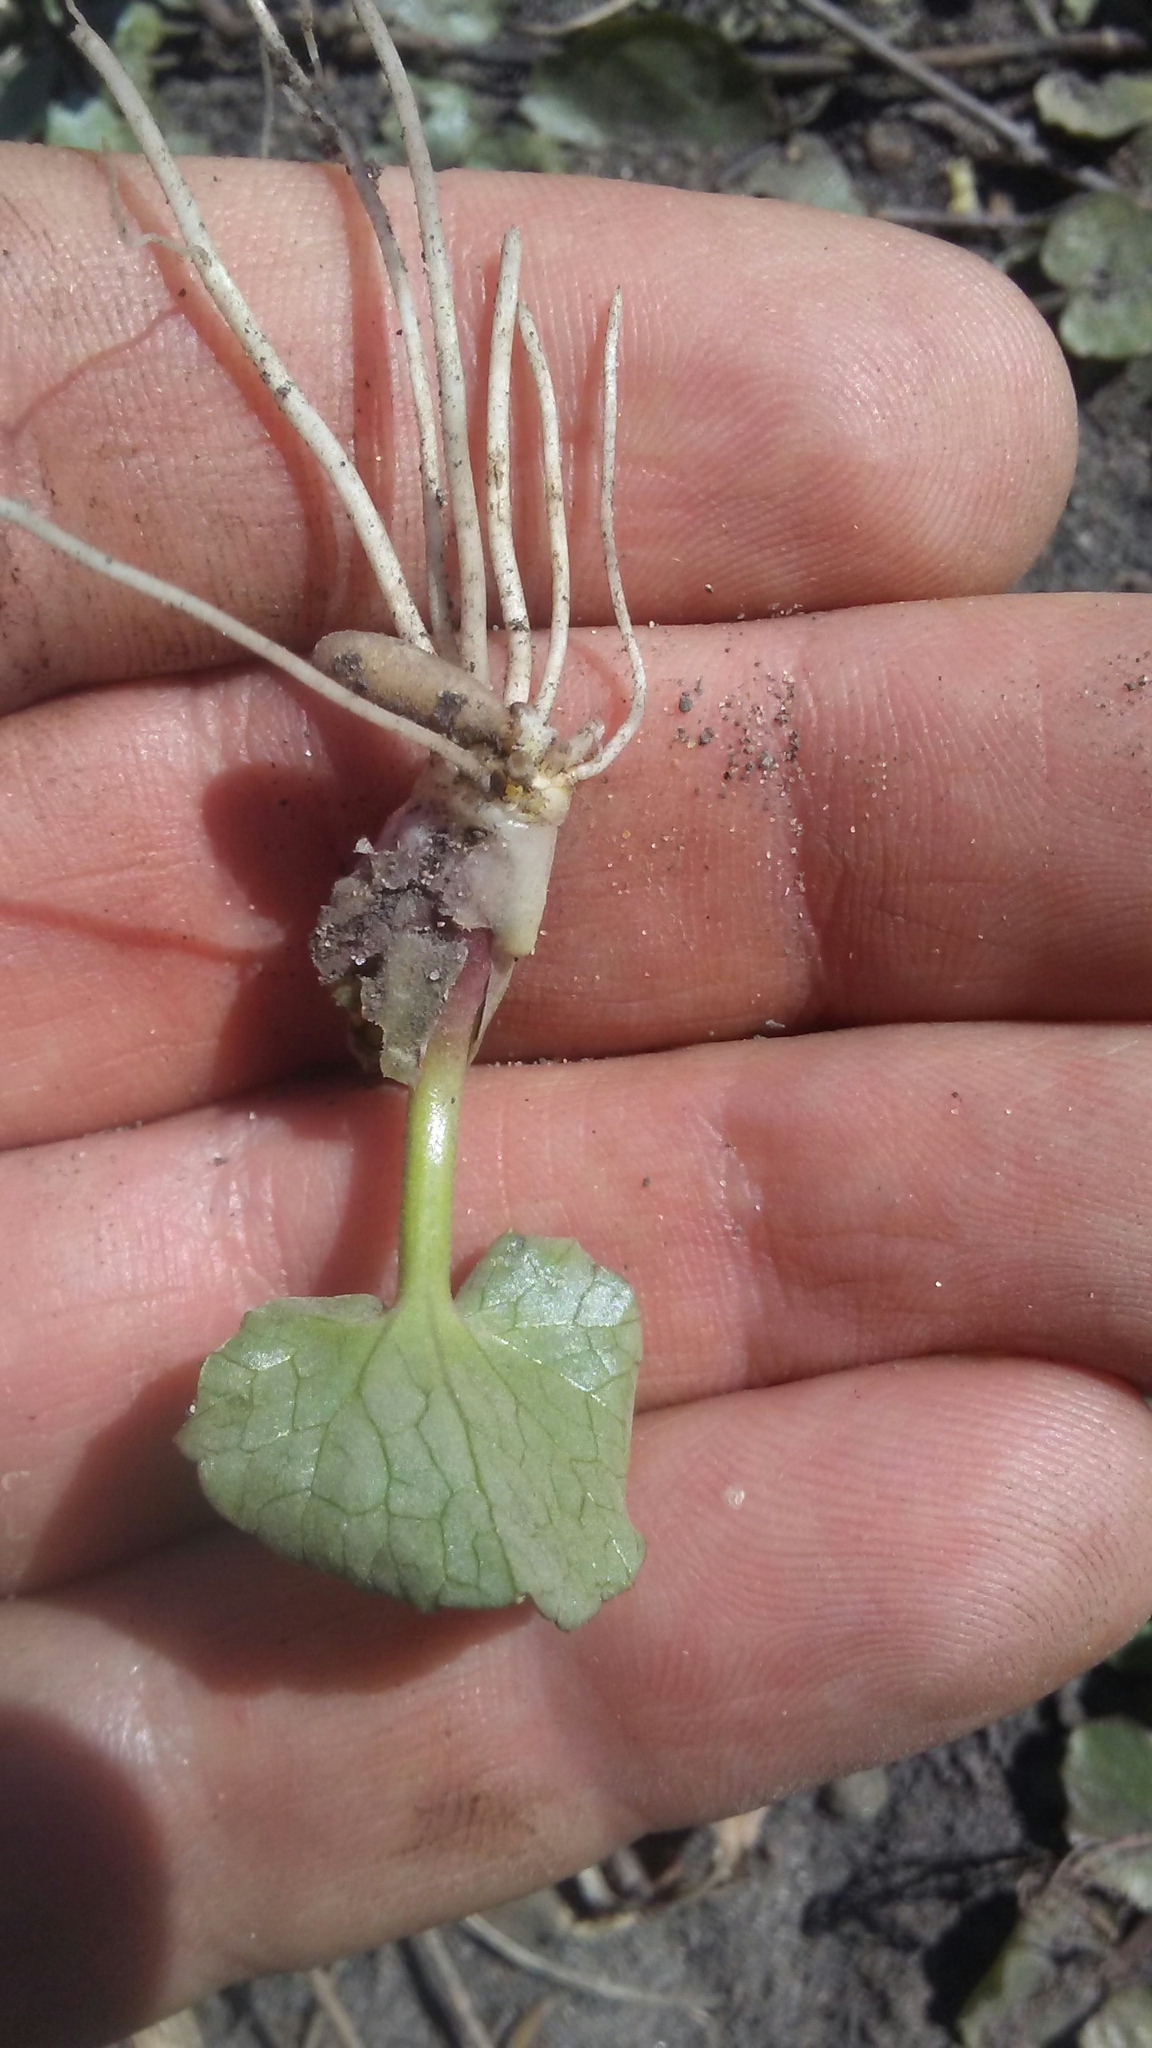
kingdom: Plantae
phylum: Tracheophyta
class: Magnoliopsida
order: Ranunculales
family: Ranunculaceae
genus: Ficaria
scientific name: Ficaria verna
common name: Lesser celandine
